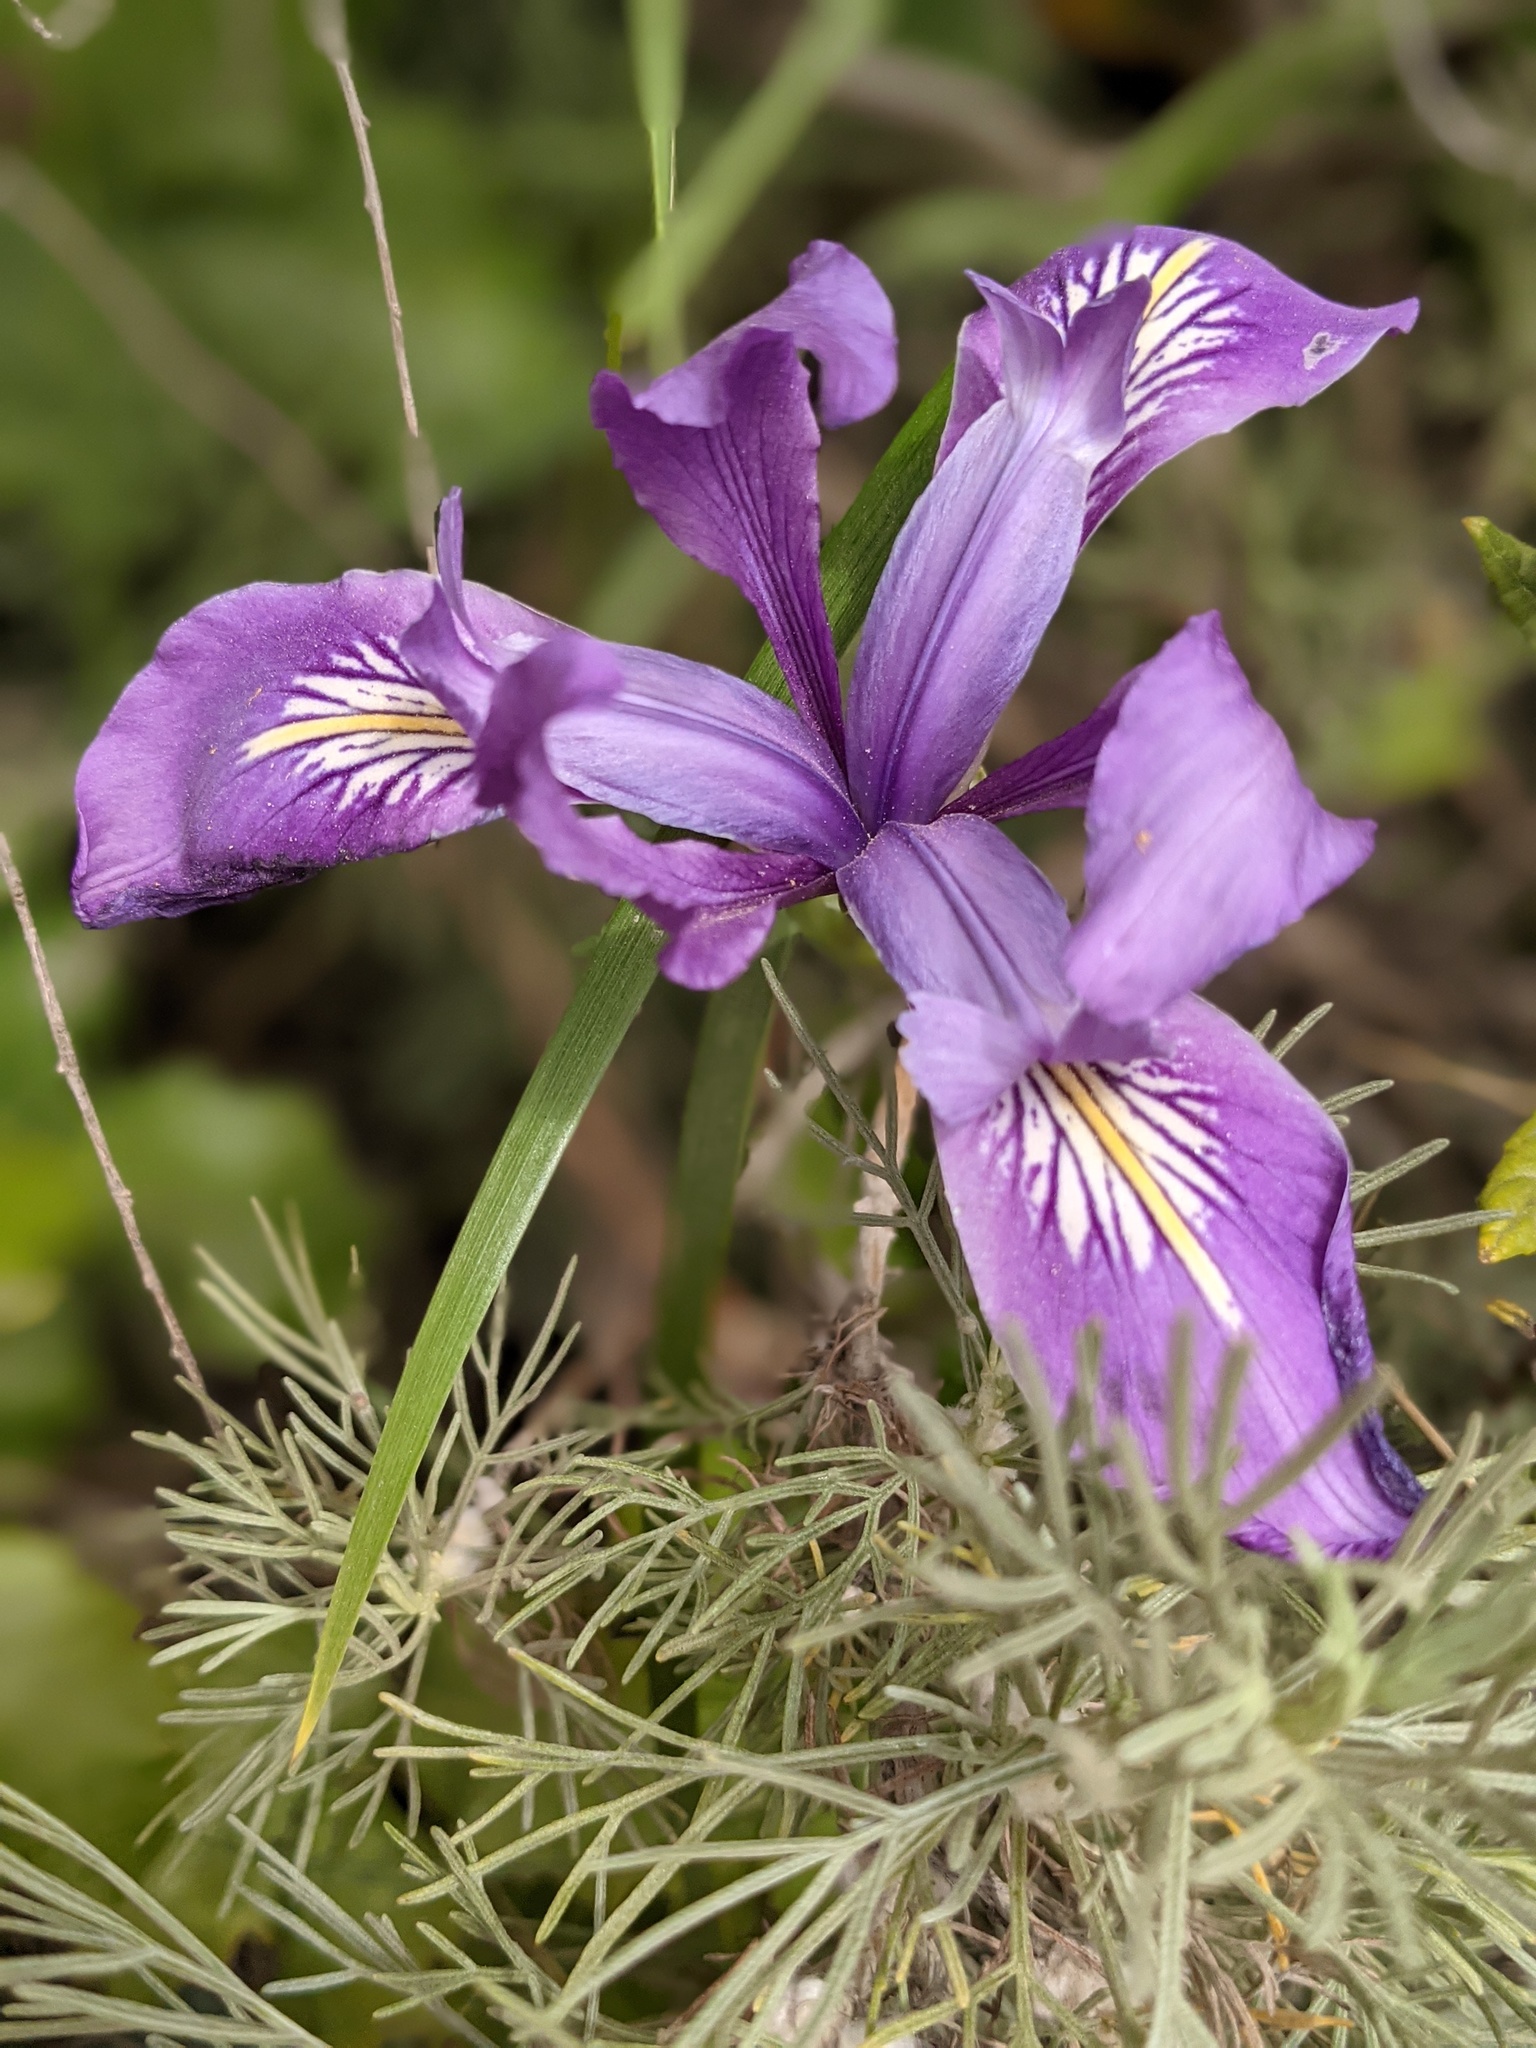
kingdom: Plantae
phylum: Tracheophyta
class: Liliopsida
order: Asparagales
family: Iridaceae
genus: Iris
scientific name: Iris douglasiana
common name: Marin iris
